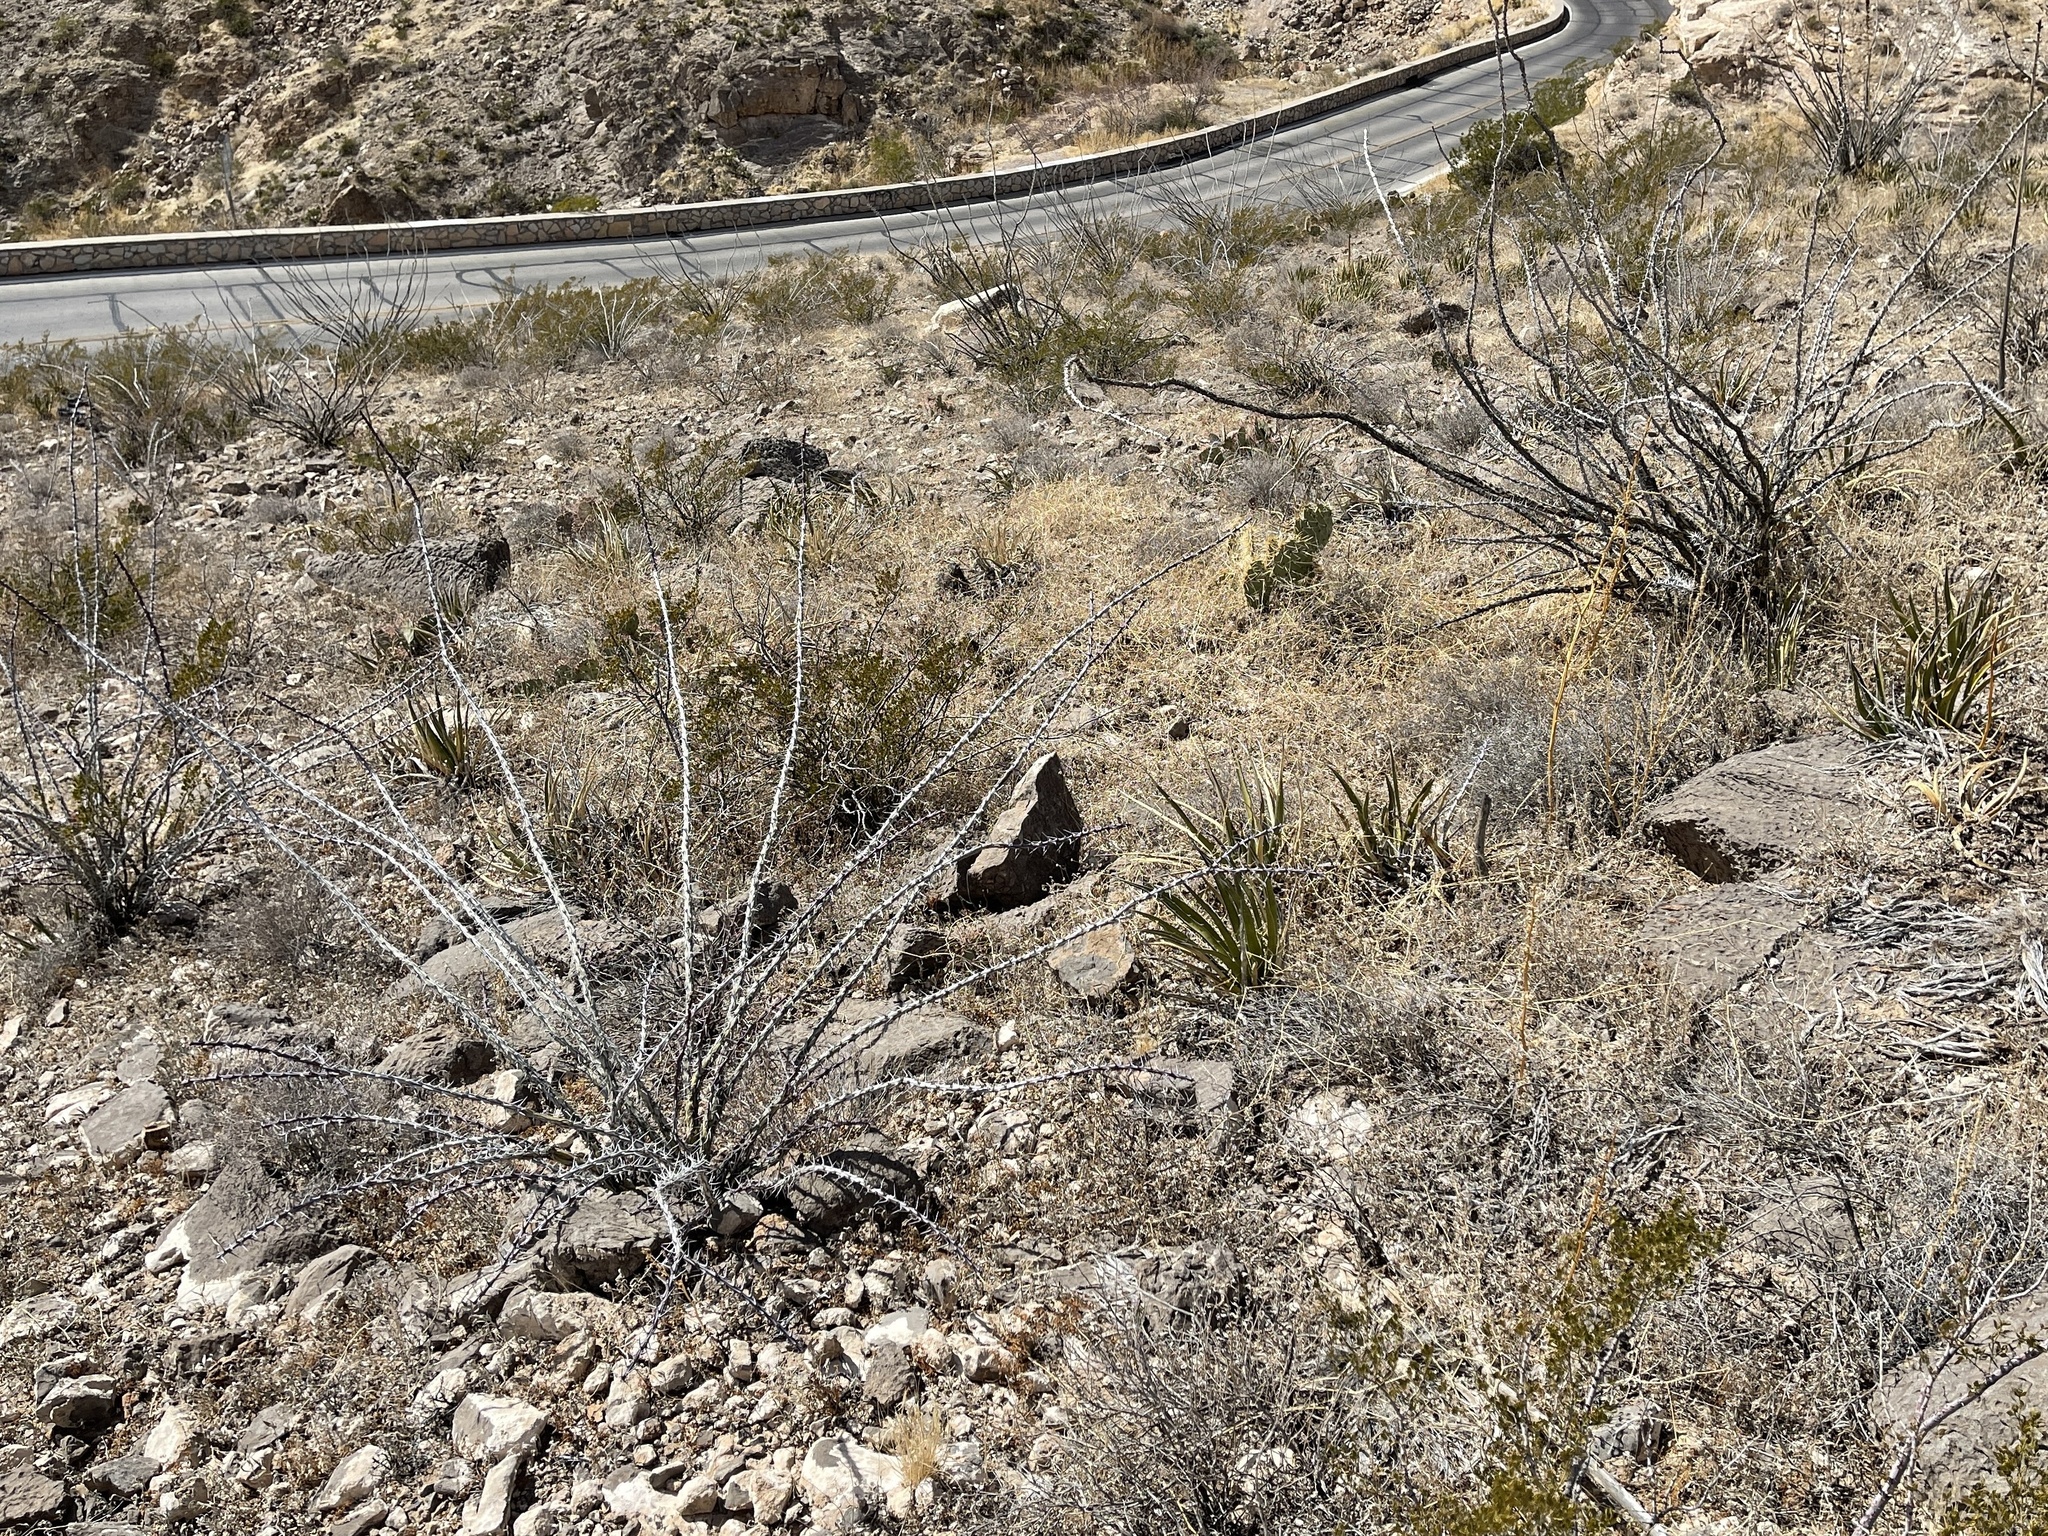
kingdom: Plantae
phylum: Tracheophyta
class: Magnoliopsida
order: Ericales
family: Fouquieriaceae
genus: Fouquieria
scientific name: Fouquieria splendens
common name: Vine-cactus
